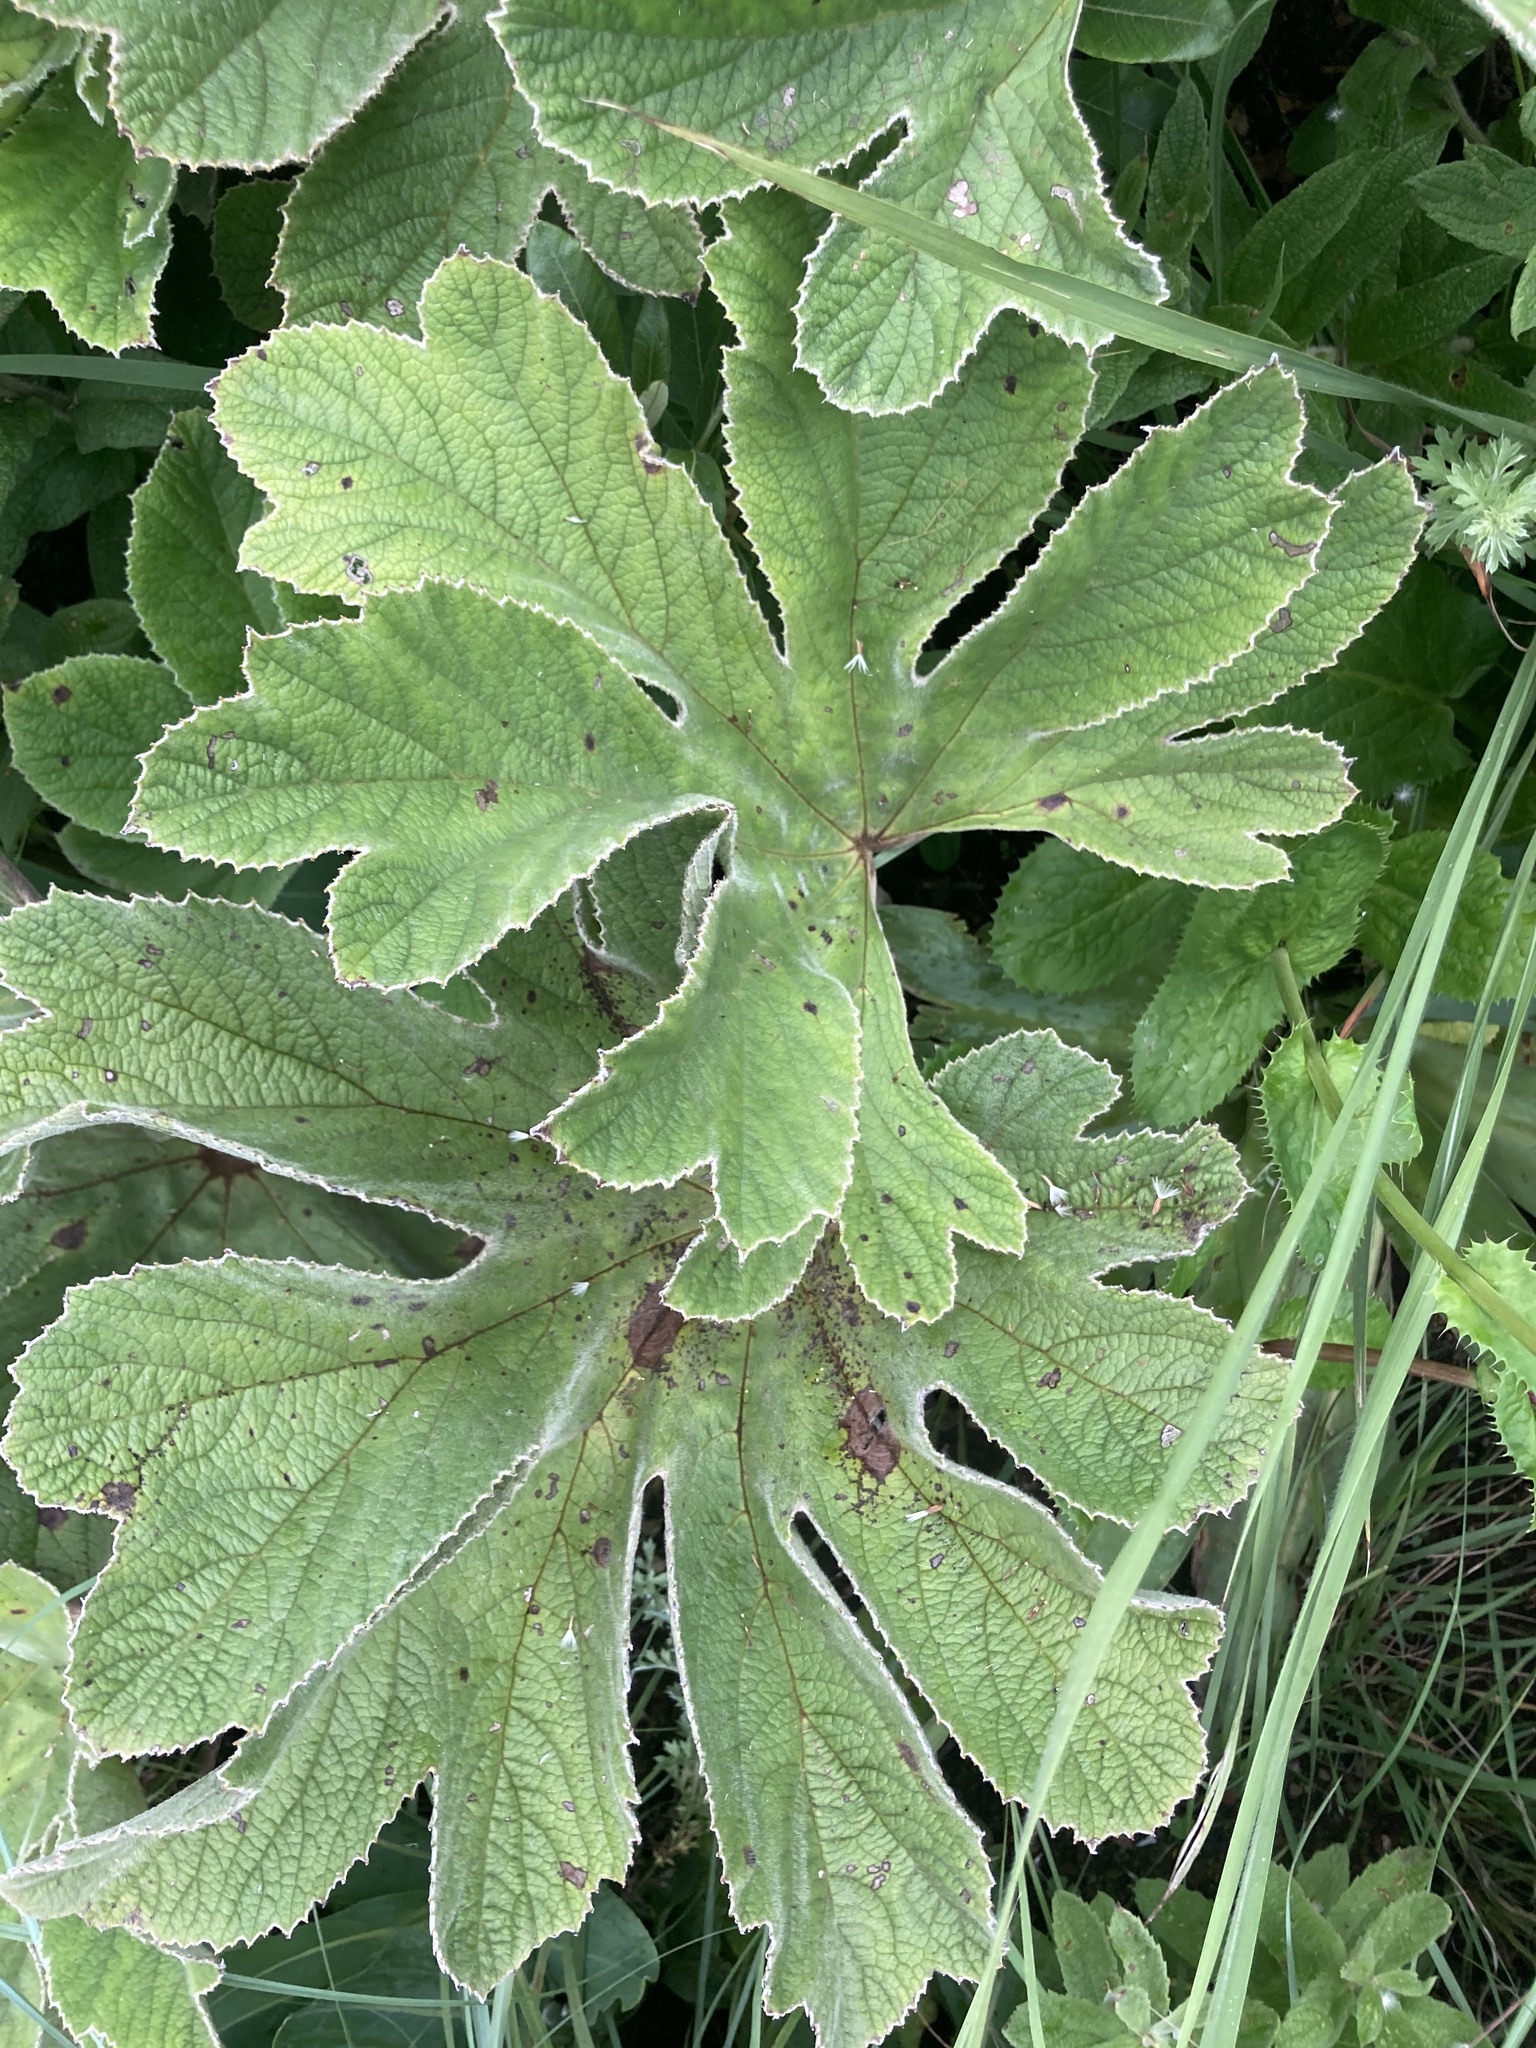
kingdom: Plantae
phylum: Tracheophyta
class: Magnoliopsida
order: Ranunculales
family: Ranunculaceae
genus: Knowltonia
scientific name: Knowltonia fanninii
